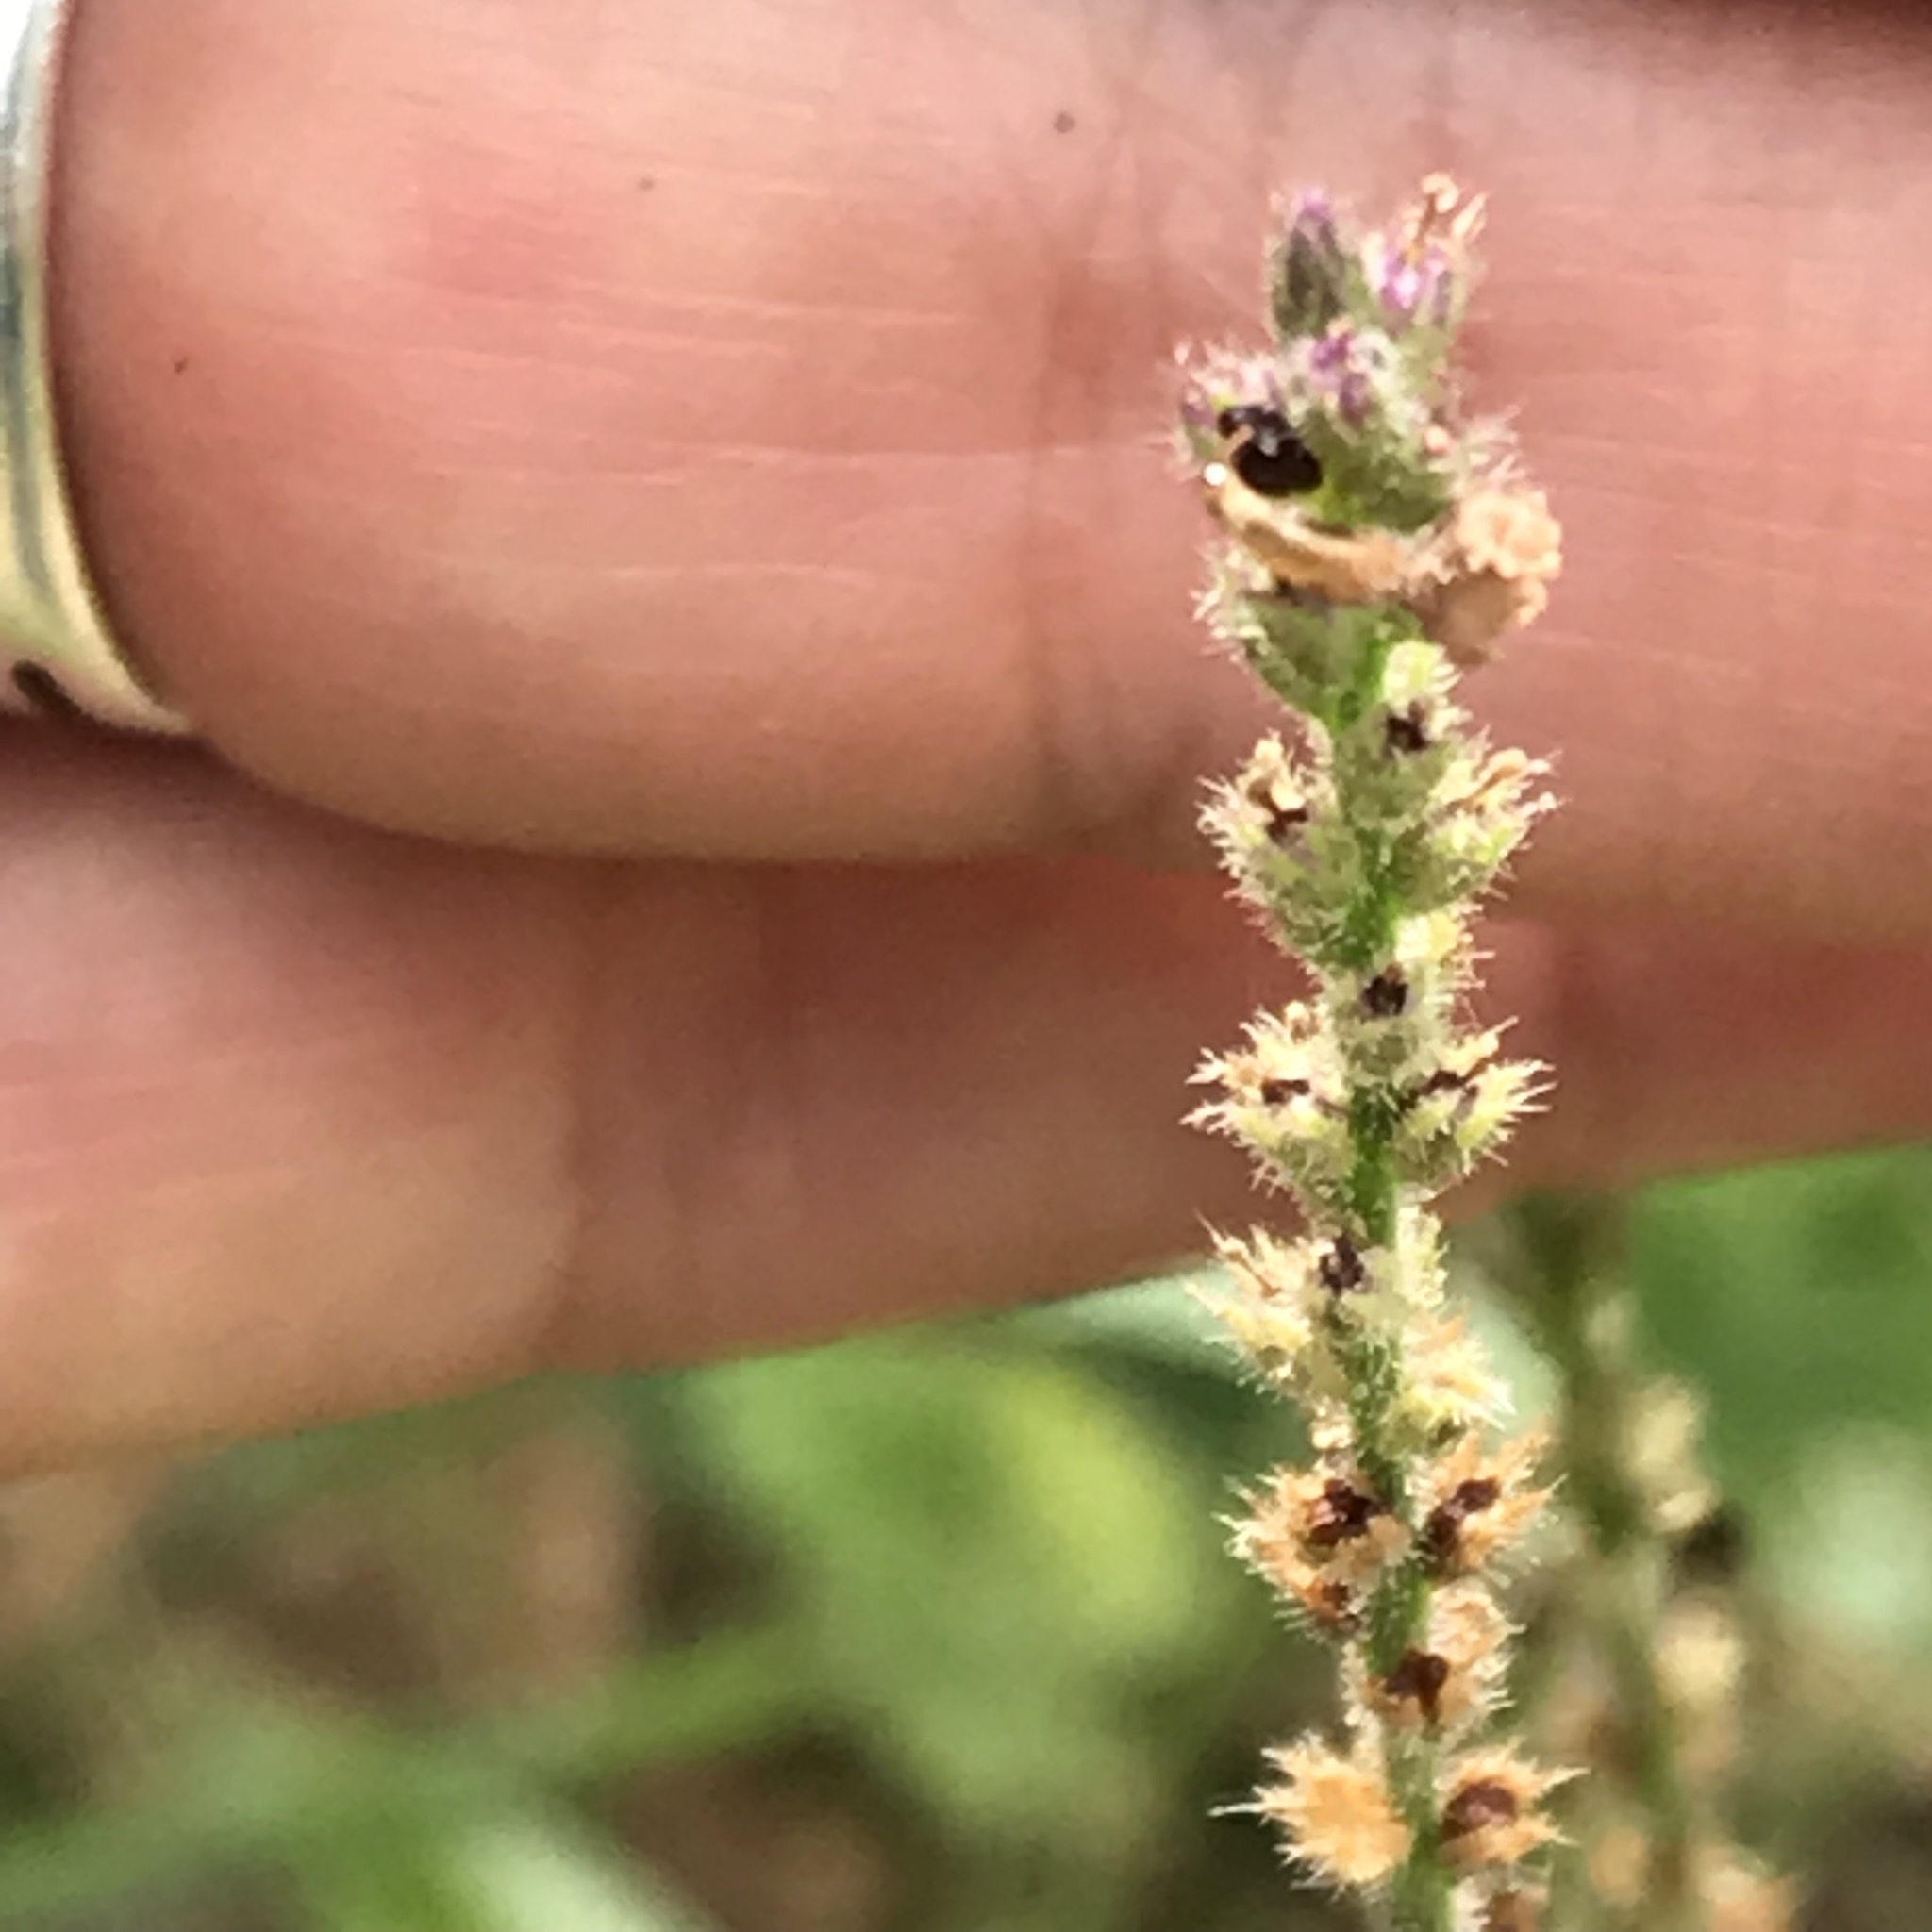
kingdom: Plantae
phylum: Tracheophyta
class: Magnoliopsida
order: Lamiales
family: Verbenaceae
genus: Verbena
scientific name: Verbena canescens
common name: Gray vervain
